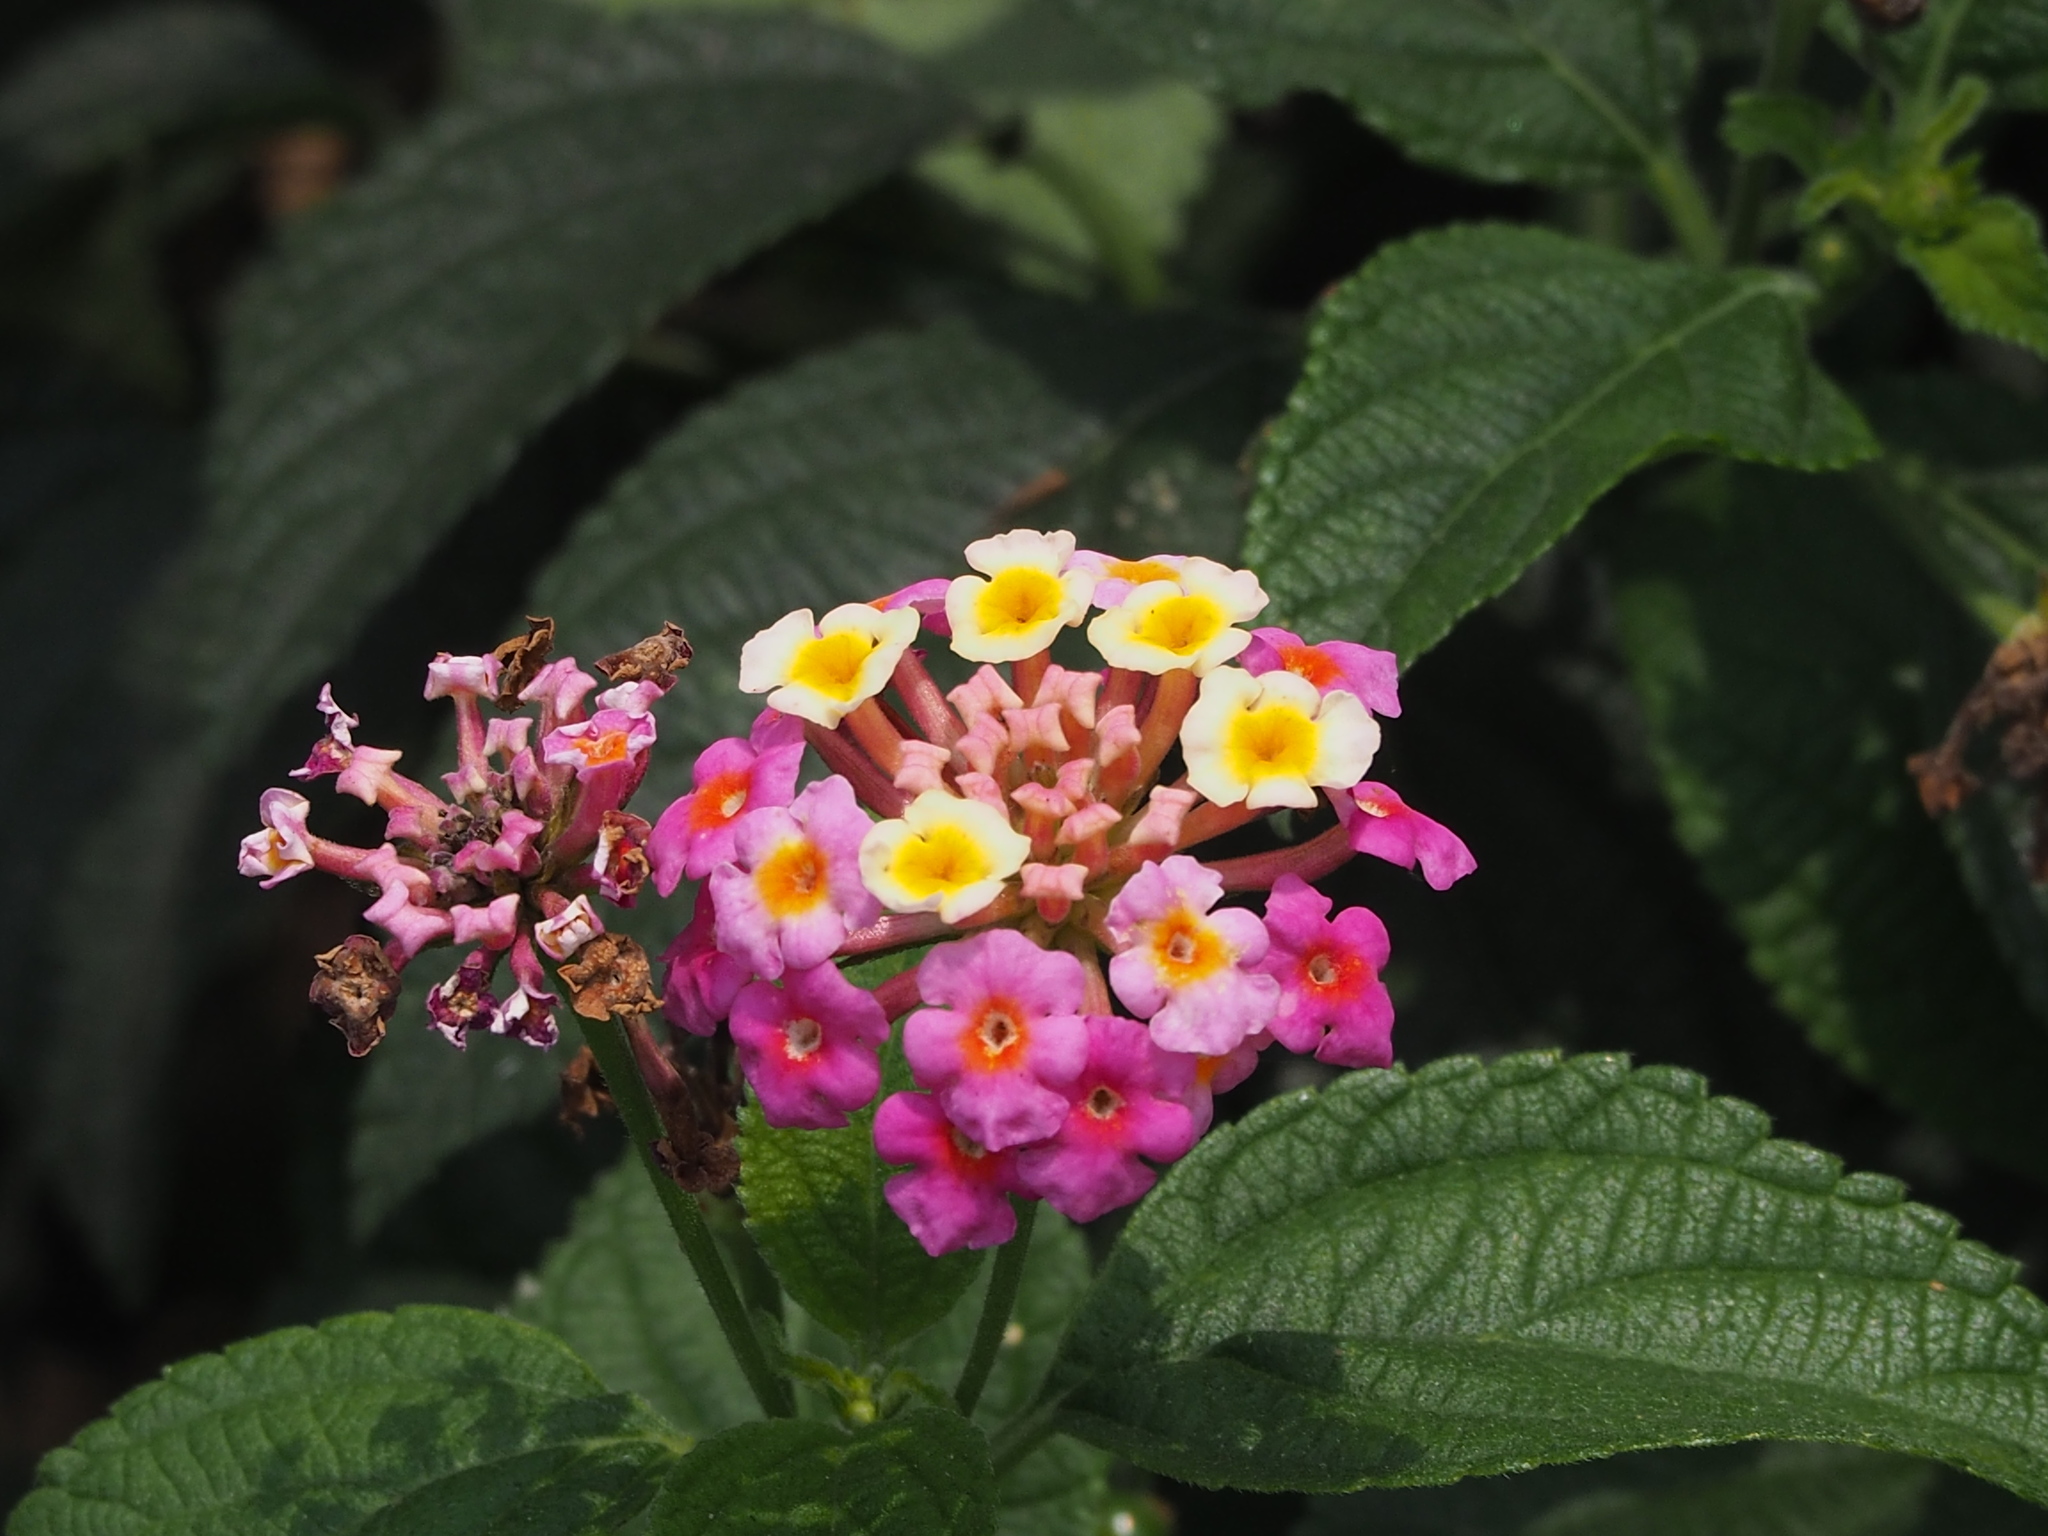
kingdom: Plantae
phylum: Tracheophyta
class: Magnoliopsida
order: Lamiales
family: Verbenaceae
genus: Lantana
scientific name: Lantana camara
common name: Lantana
